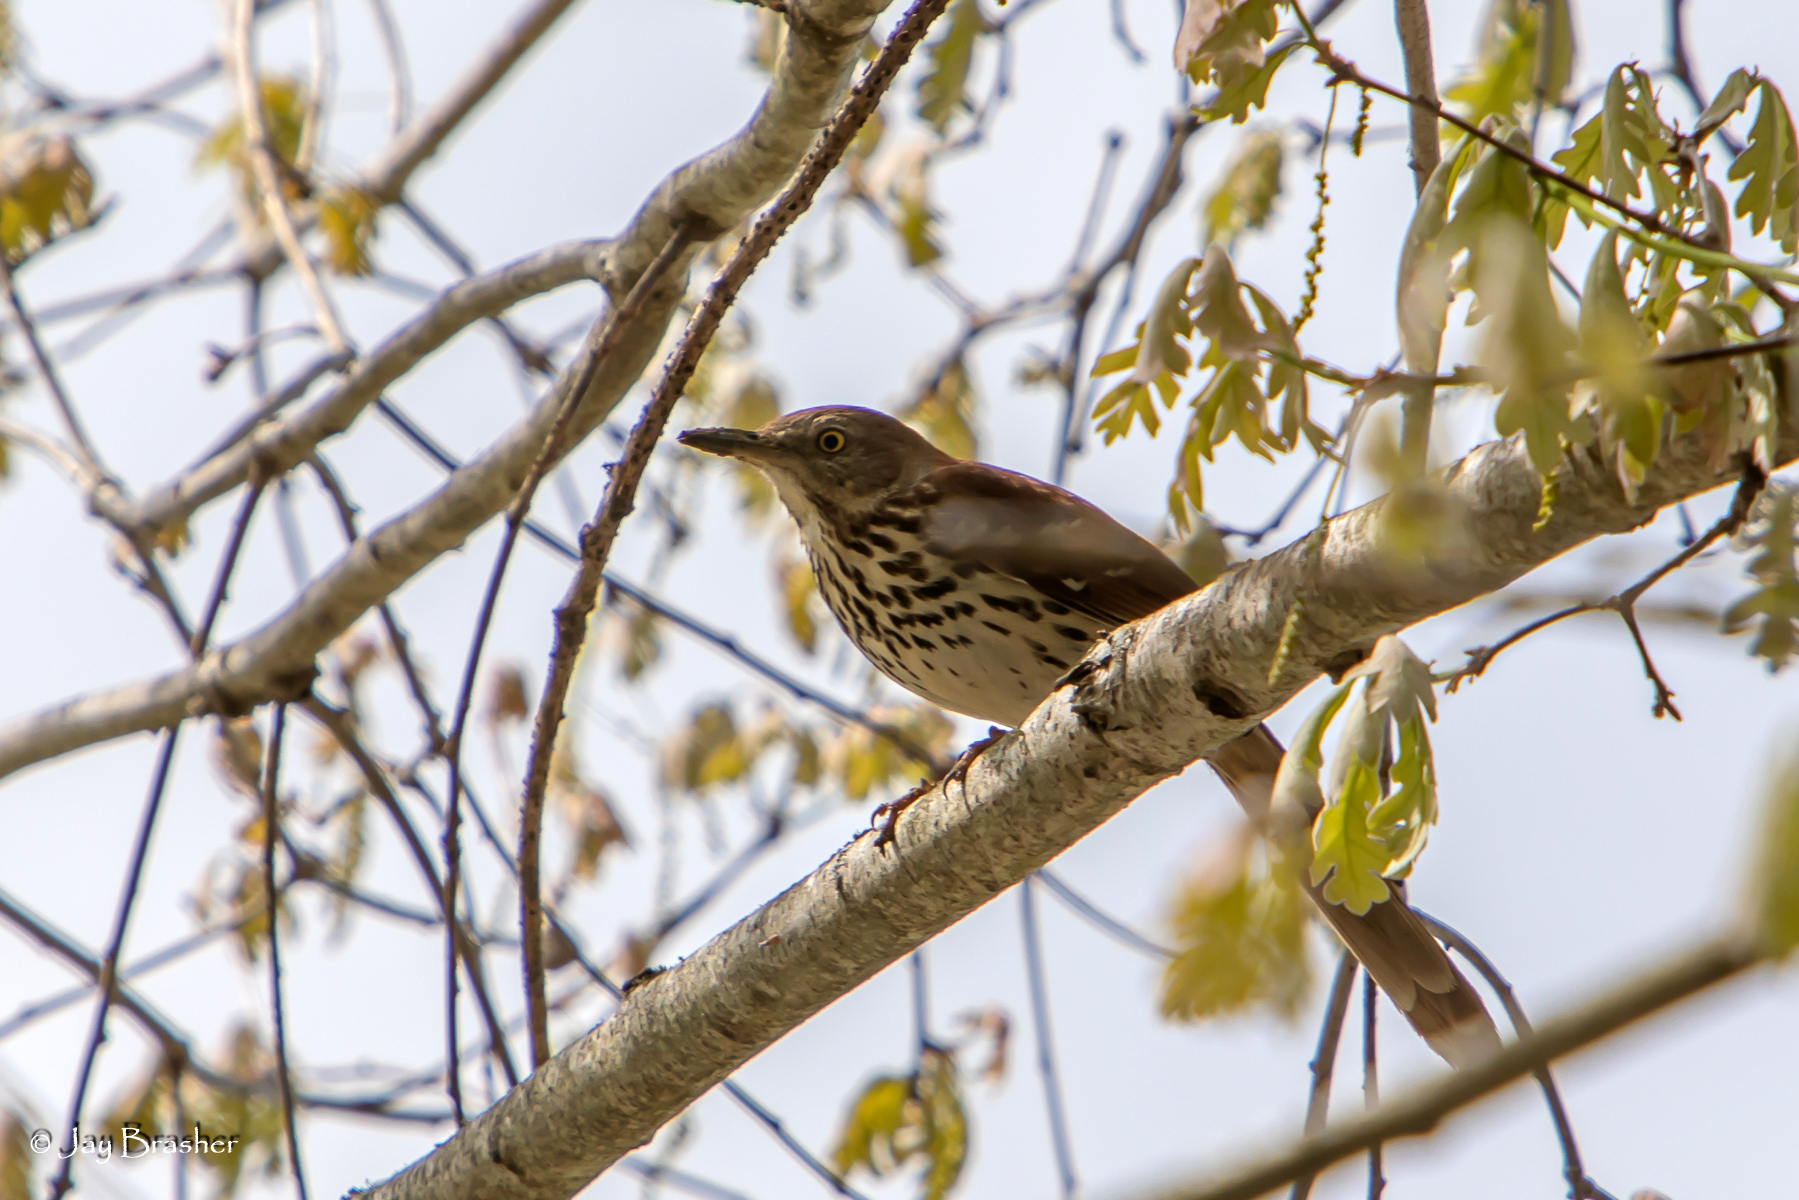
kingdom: Animalia
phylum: Chordata
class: Aves
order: Passeriformes
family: Mimidae
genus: Toxostoma
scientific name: Toxostoma rufum
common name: Brown thrasher
